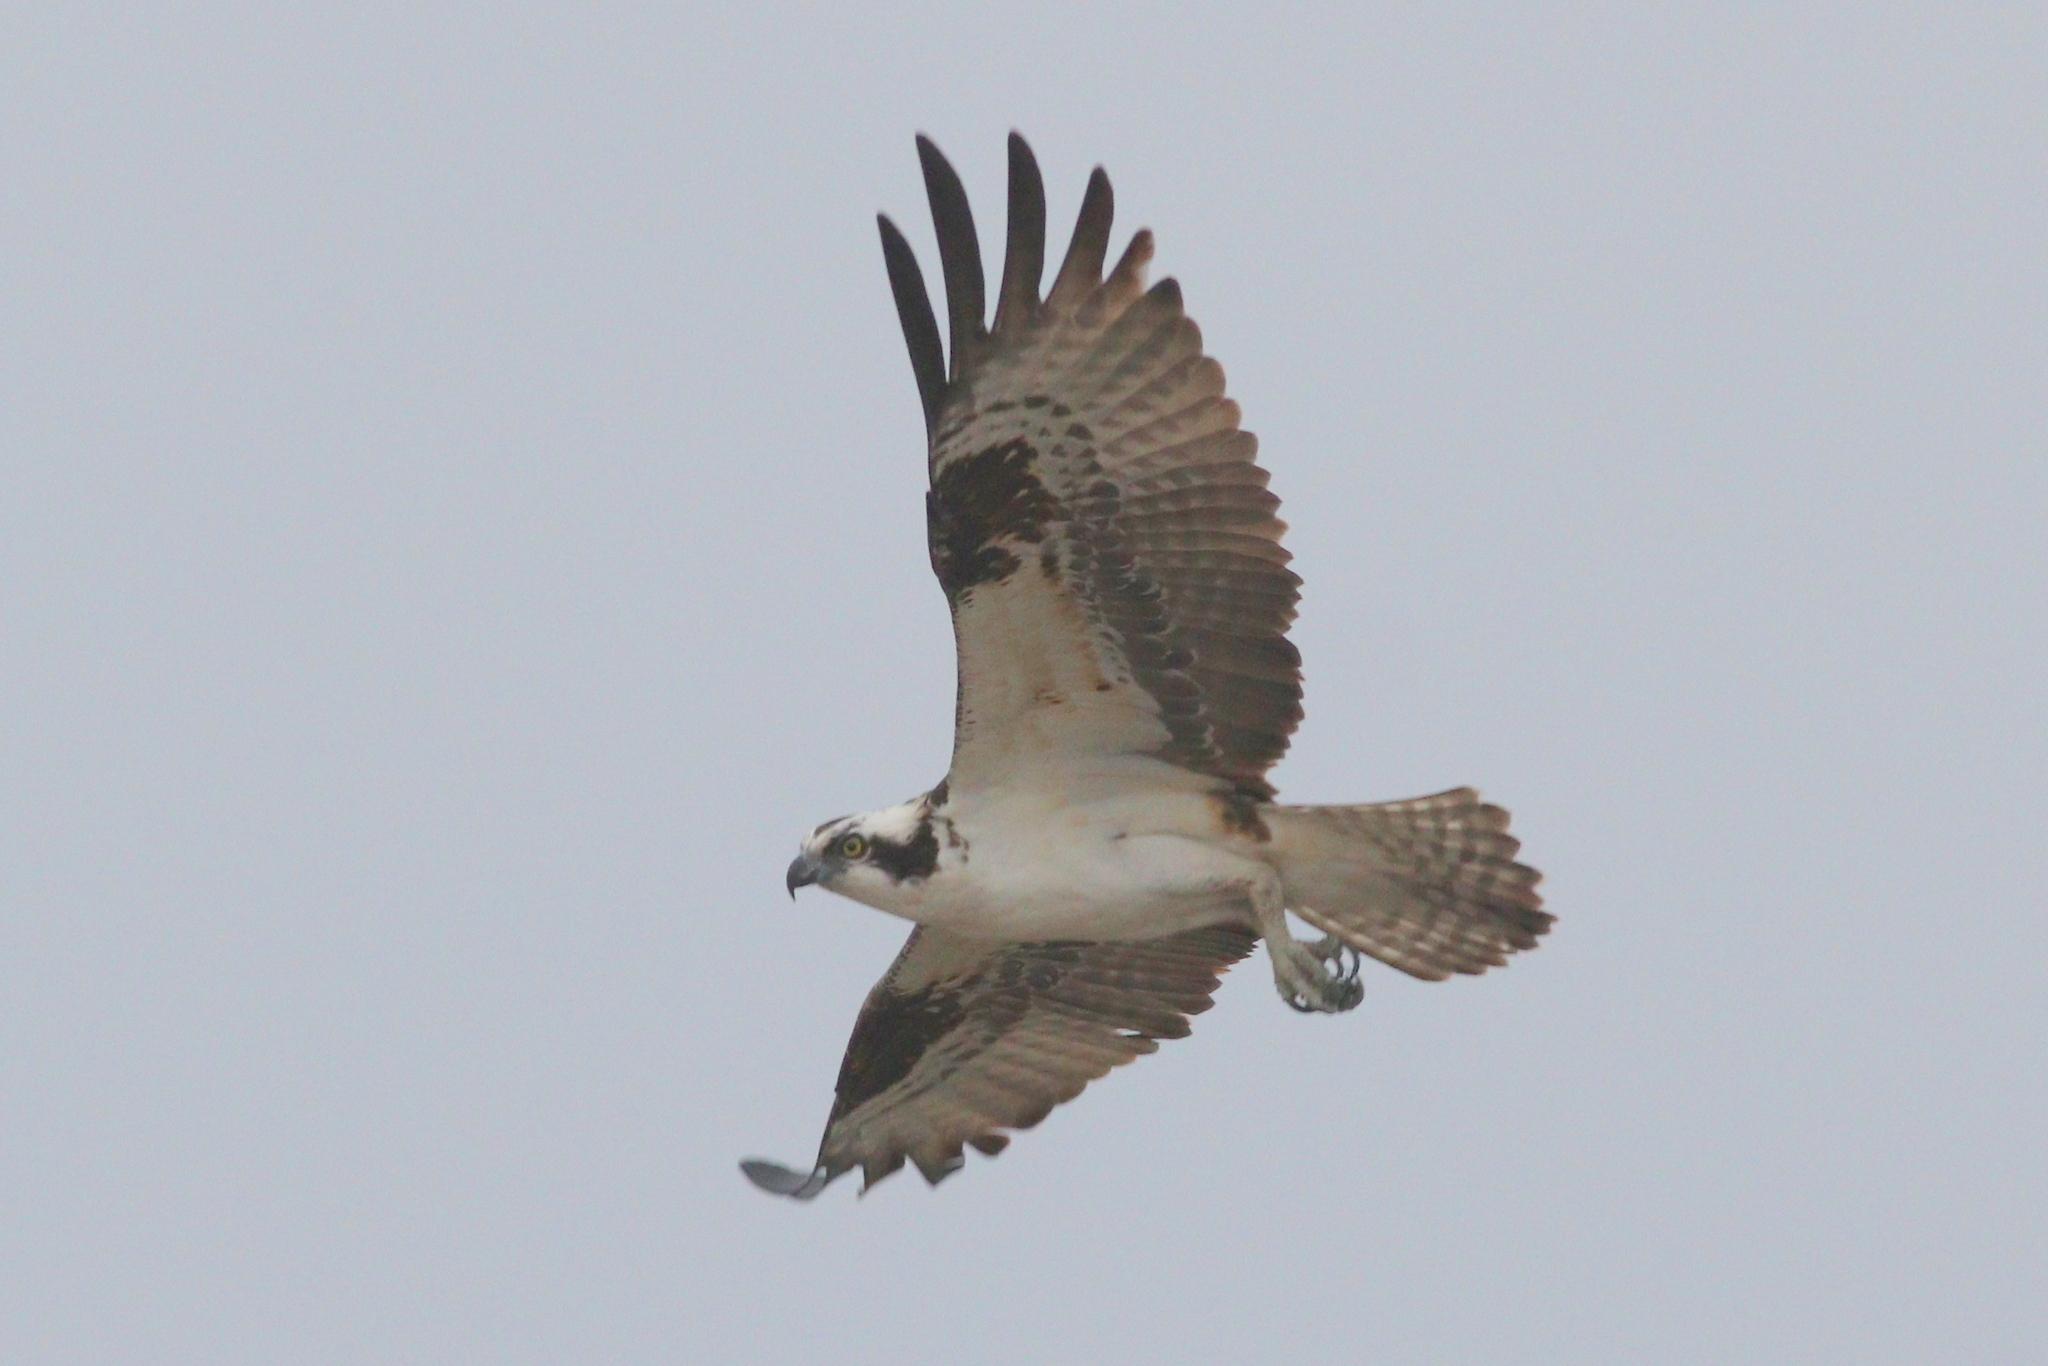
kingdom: Animalia
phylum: Chordata
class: Aves
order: Accipitriformes
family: Pandionidae
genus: Pandion
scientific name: Pandion haliaetus
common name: Osprey
